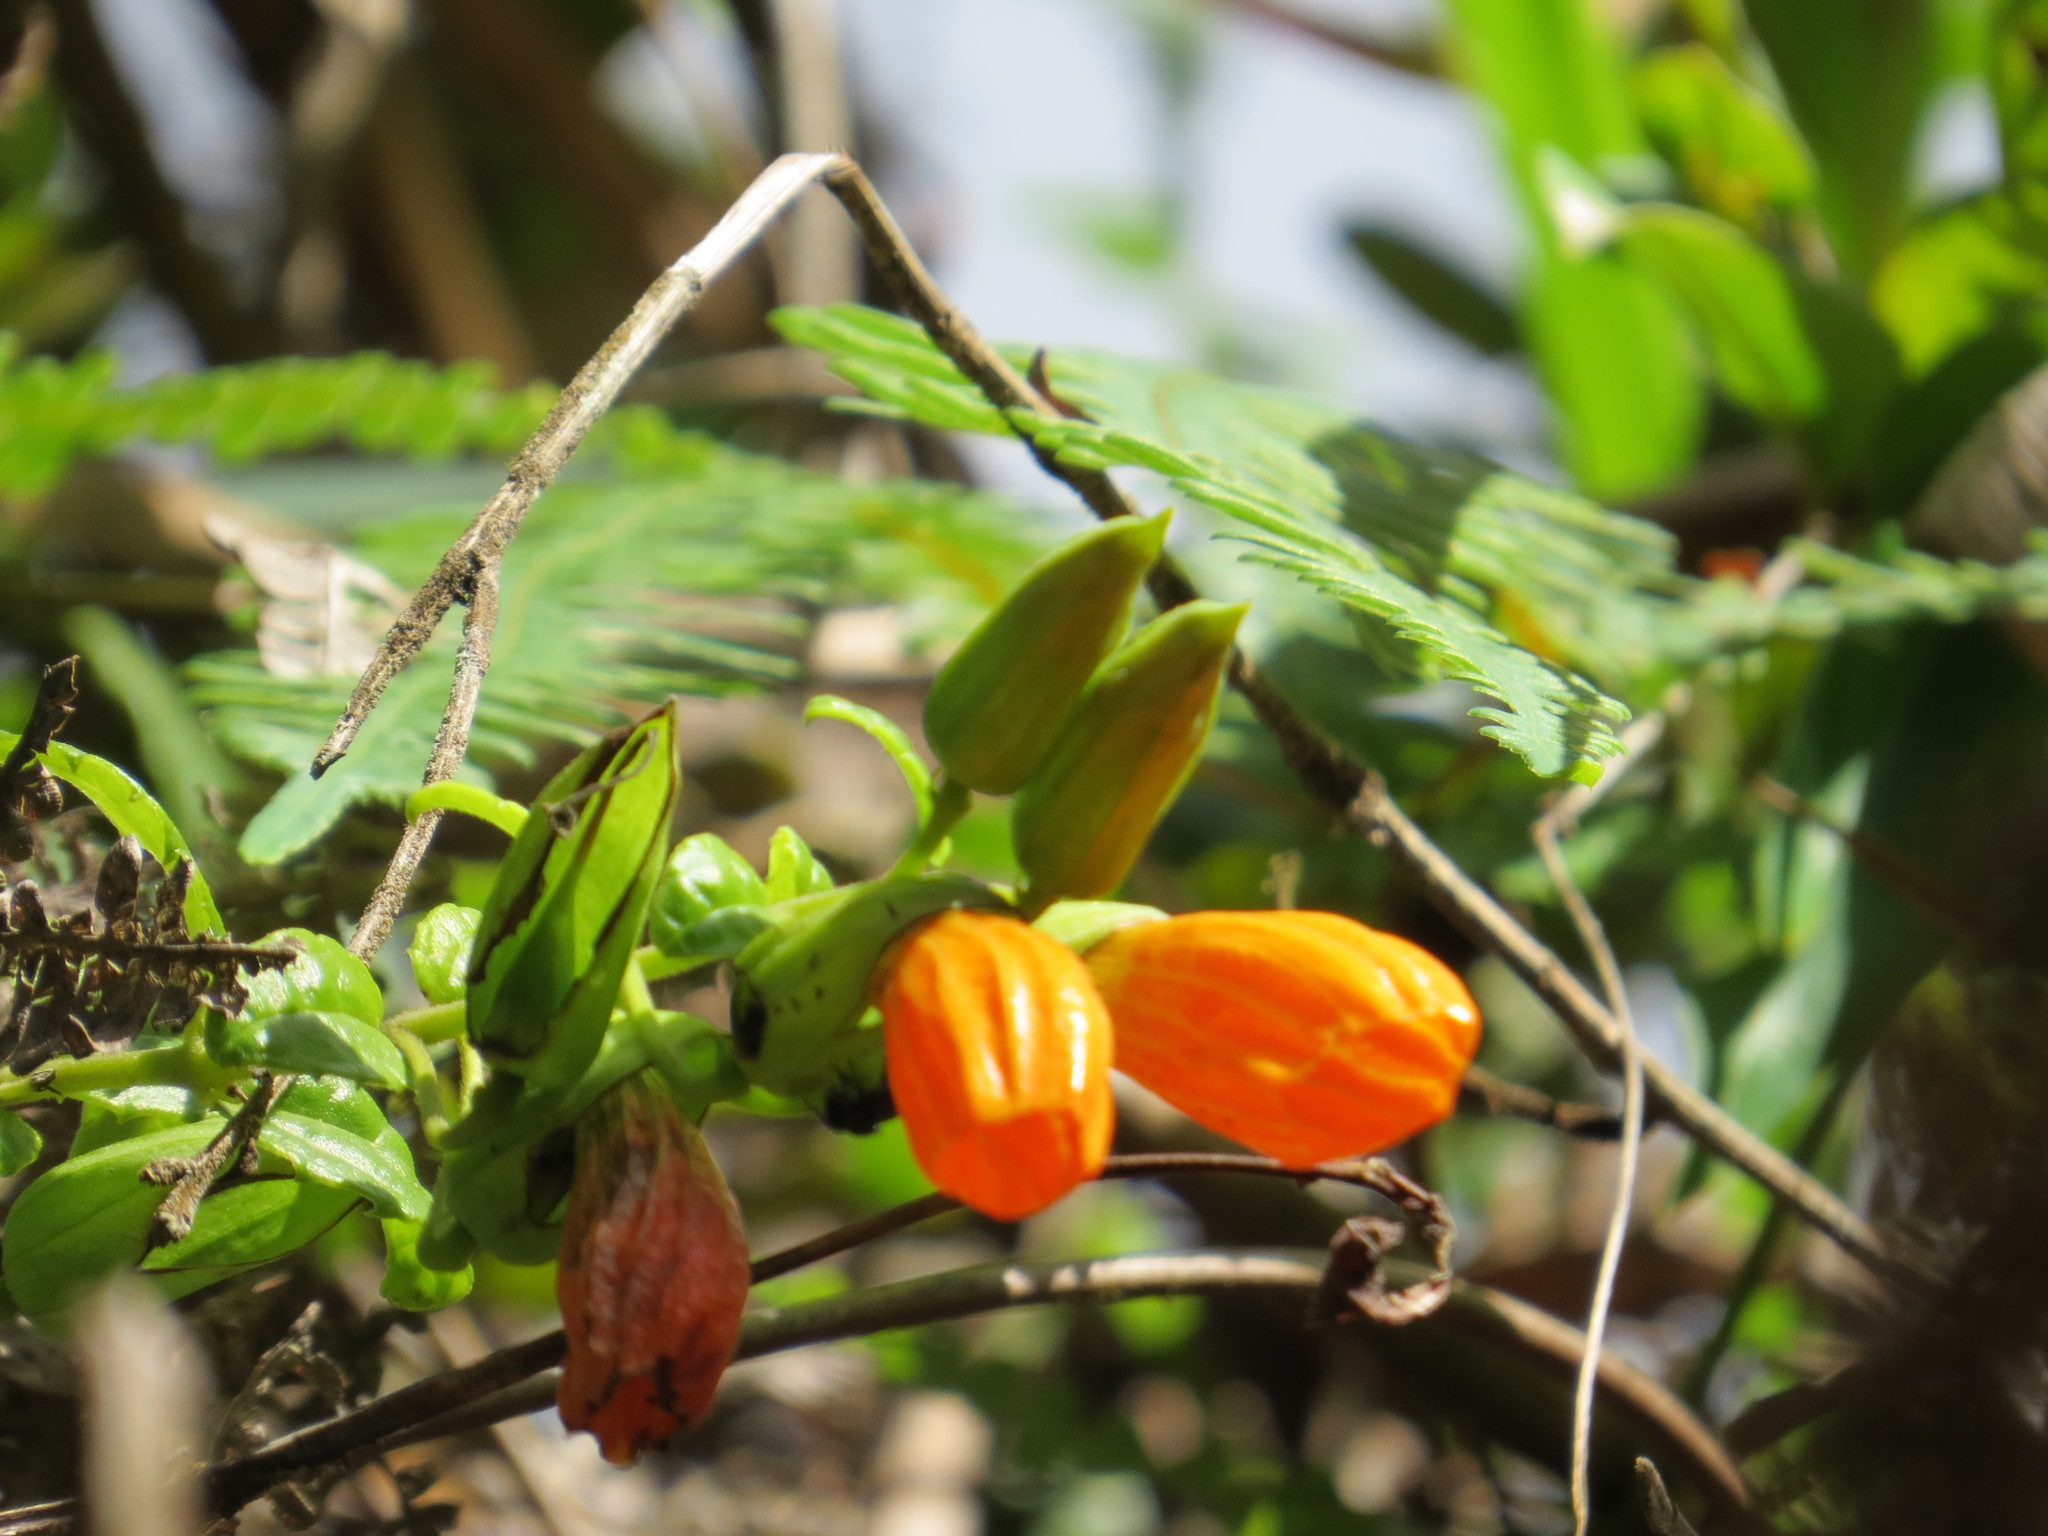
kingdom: Plantae
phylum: Tracheophyta
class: Magnoliopsida
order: Lamiales
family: Orobanchaceae
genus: Vellosiella
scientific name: Vellosiella dracocephaloides
